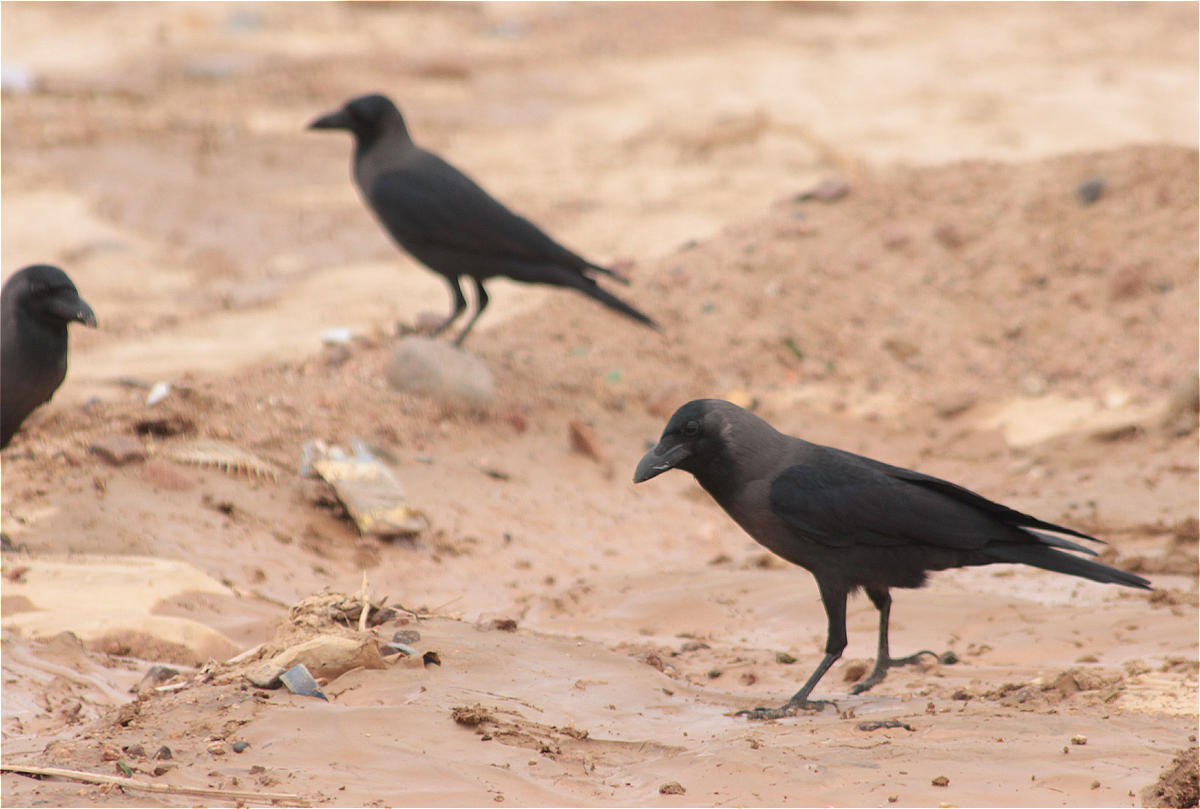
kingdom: Animalia
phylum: Chordata
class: Aves
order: Passeriformes
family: Corvidae
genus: Corvus
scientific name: Corvus splendens
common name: House crow
